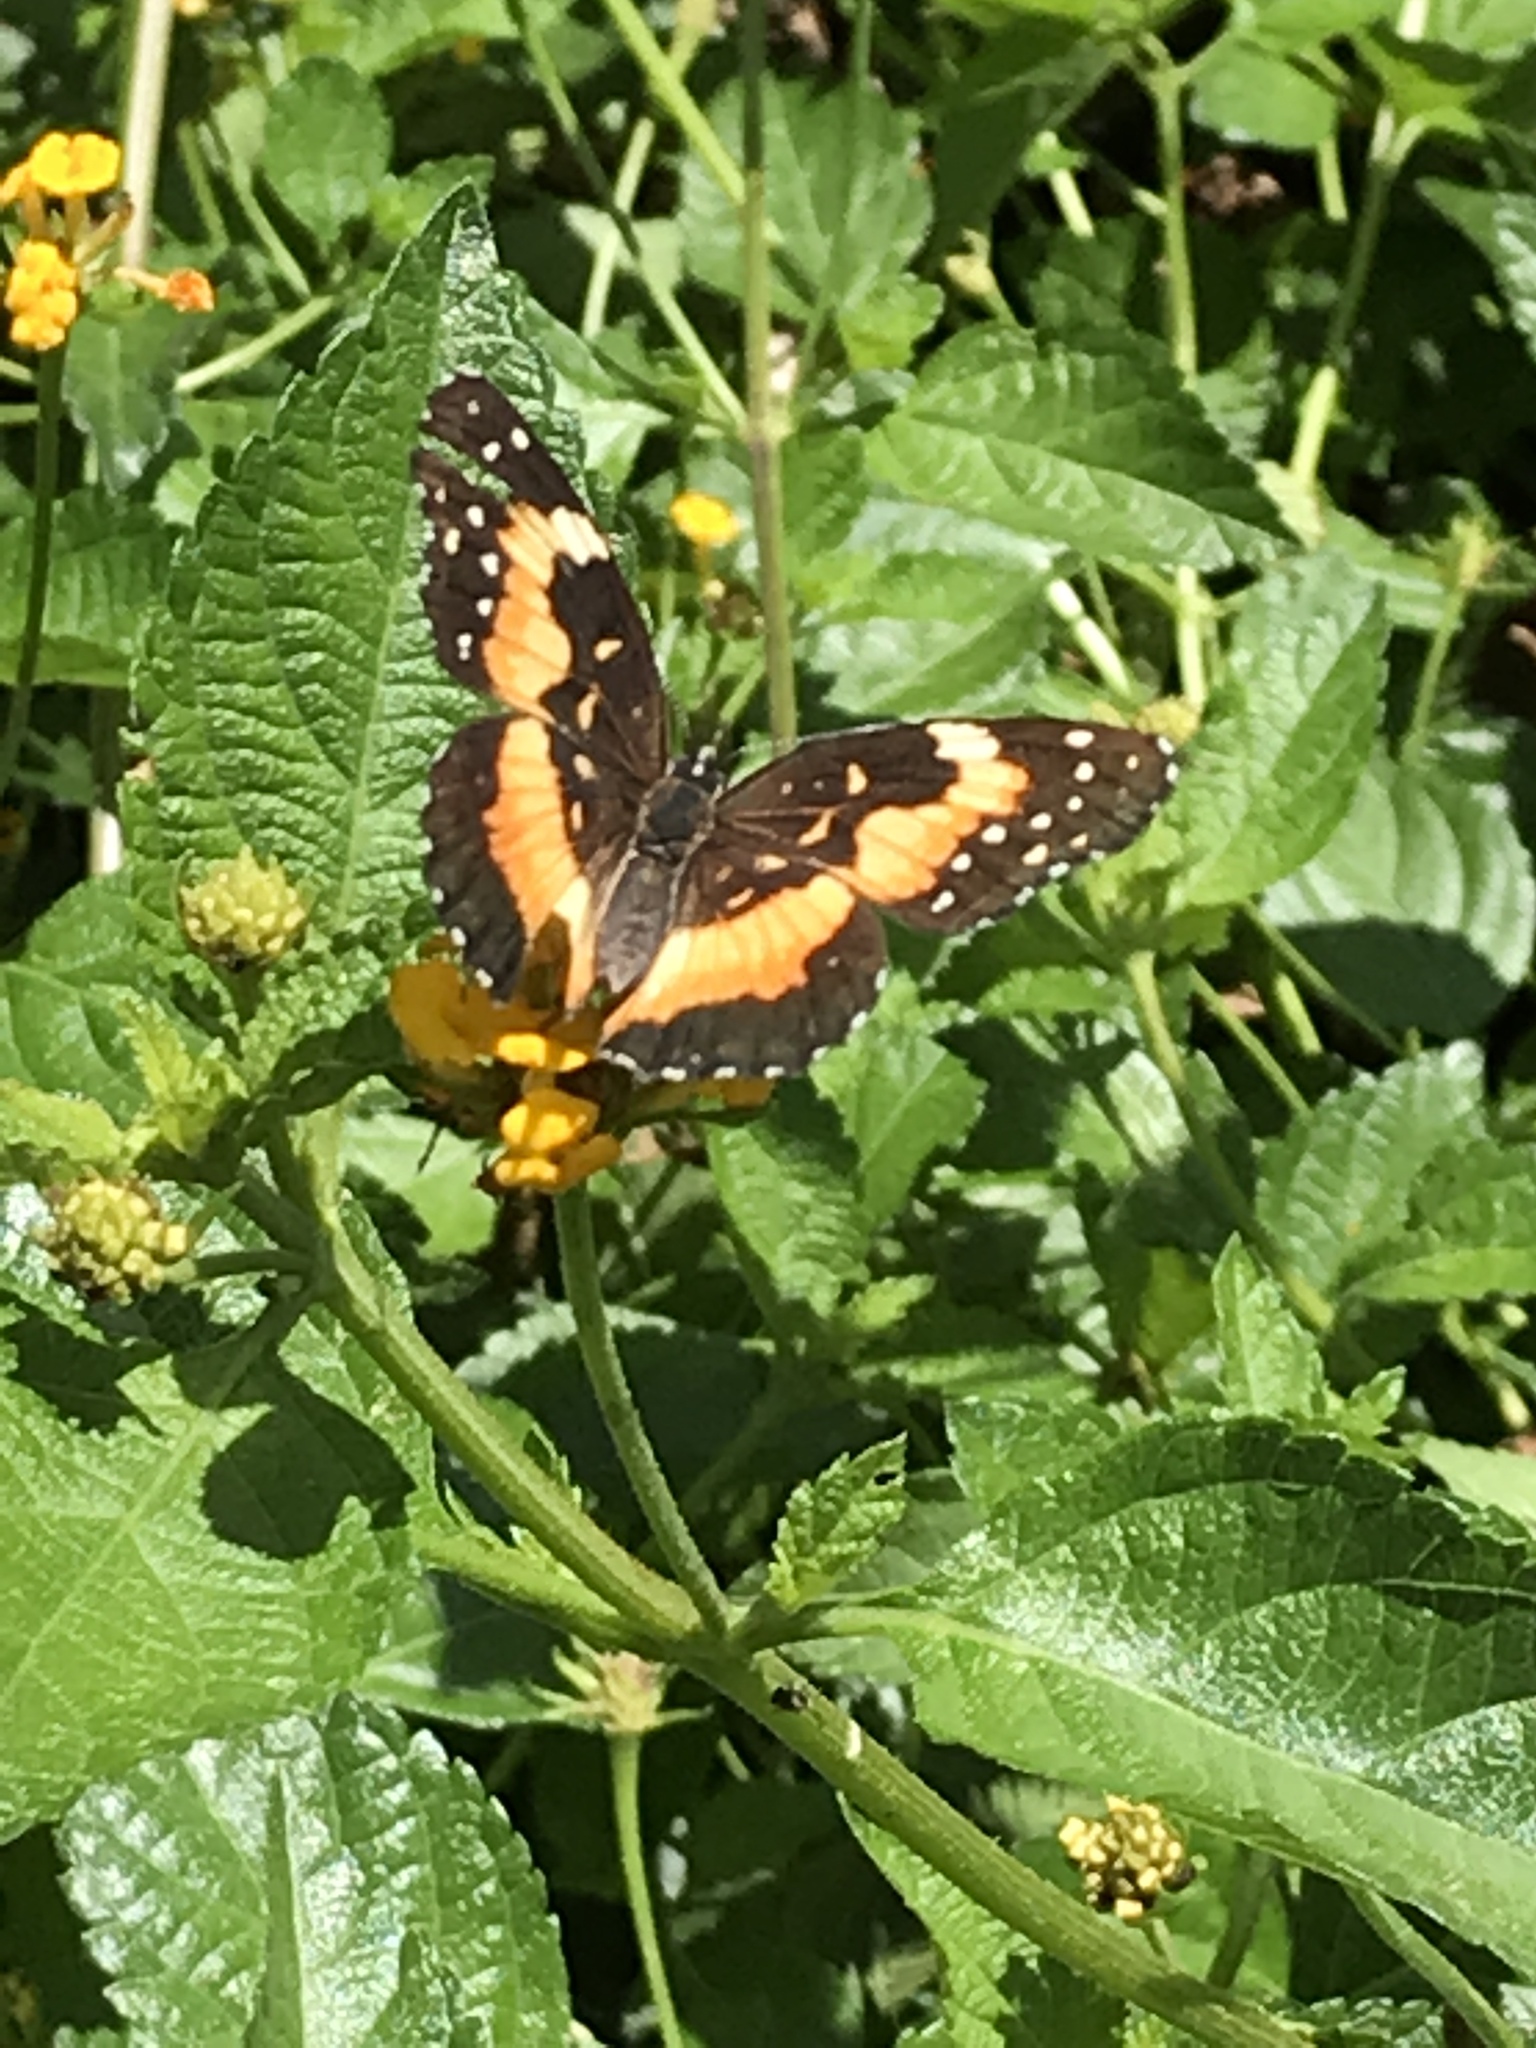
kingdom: Animalia
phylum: Arthropoda
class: Insecta
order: Lepidoptera
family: Nymphalidae
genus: Chlosyne
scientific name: Chlosyne lacinia
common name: Bordered patch
